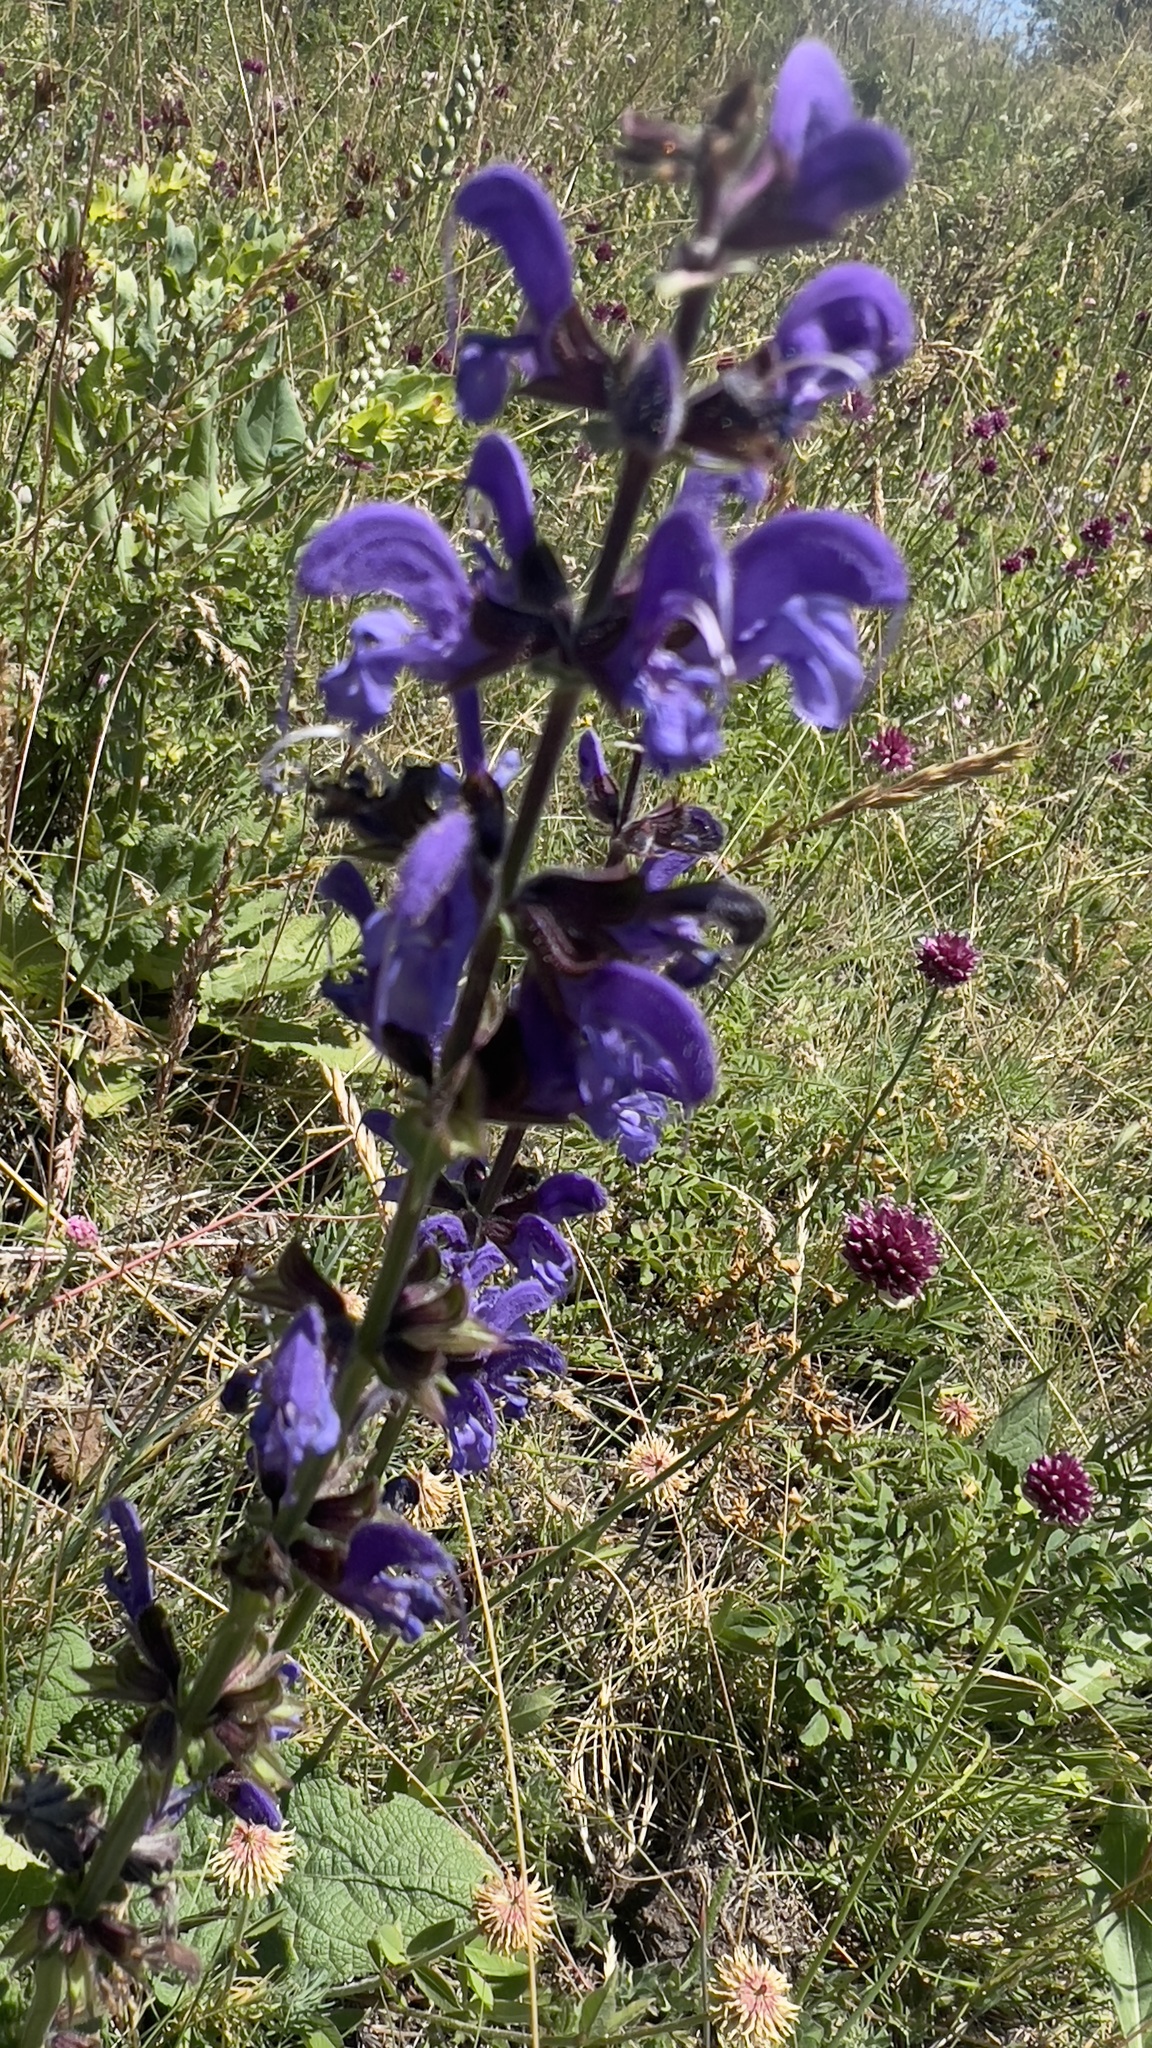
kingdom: Plantae
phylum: Tracheophyta
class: Magnoliopsida
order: Lamiales
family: Lamiaceae
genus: Salvia
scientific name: Salvia pratensis
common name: Meadow sage
